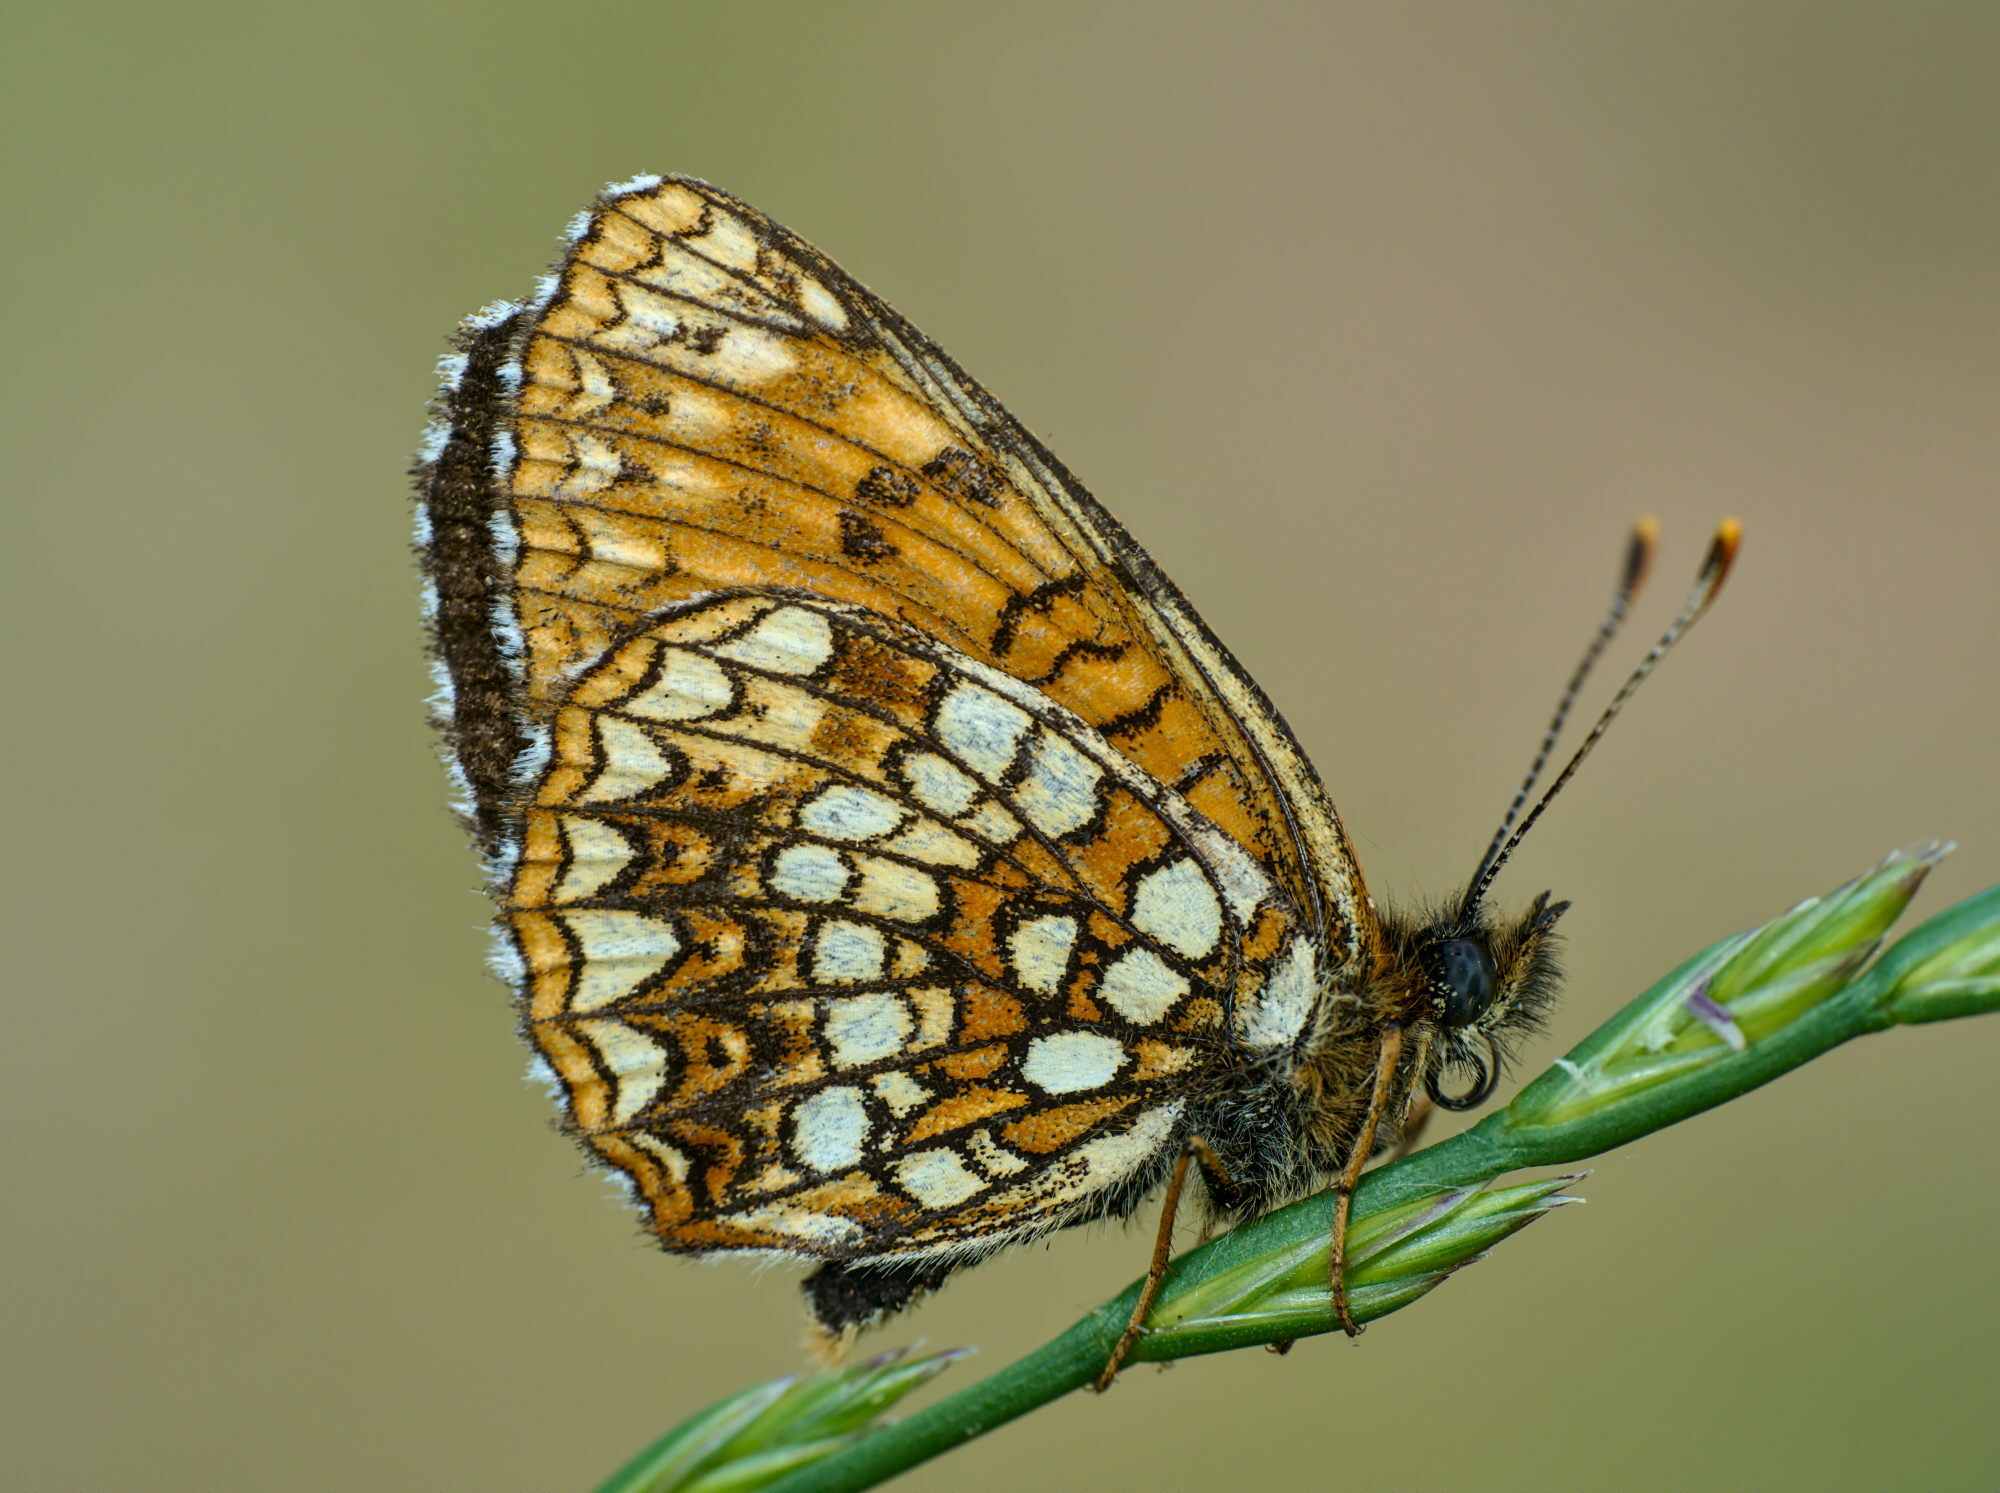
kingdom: Animalia
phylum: Arthropoda
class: Insecta
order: Lepidoptera
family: Nymphalidae
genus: Melitaea
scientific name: Melitaea diamina
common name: False heath fritillary
